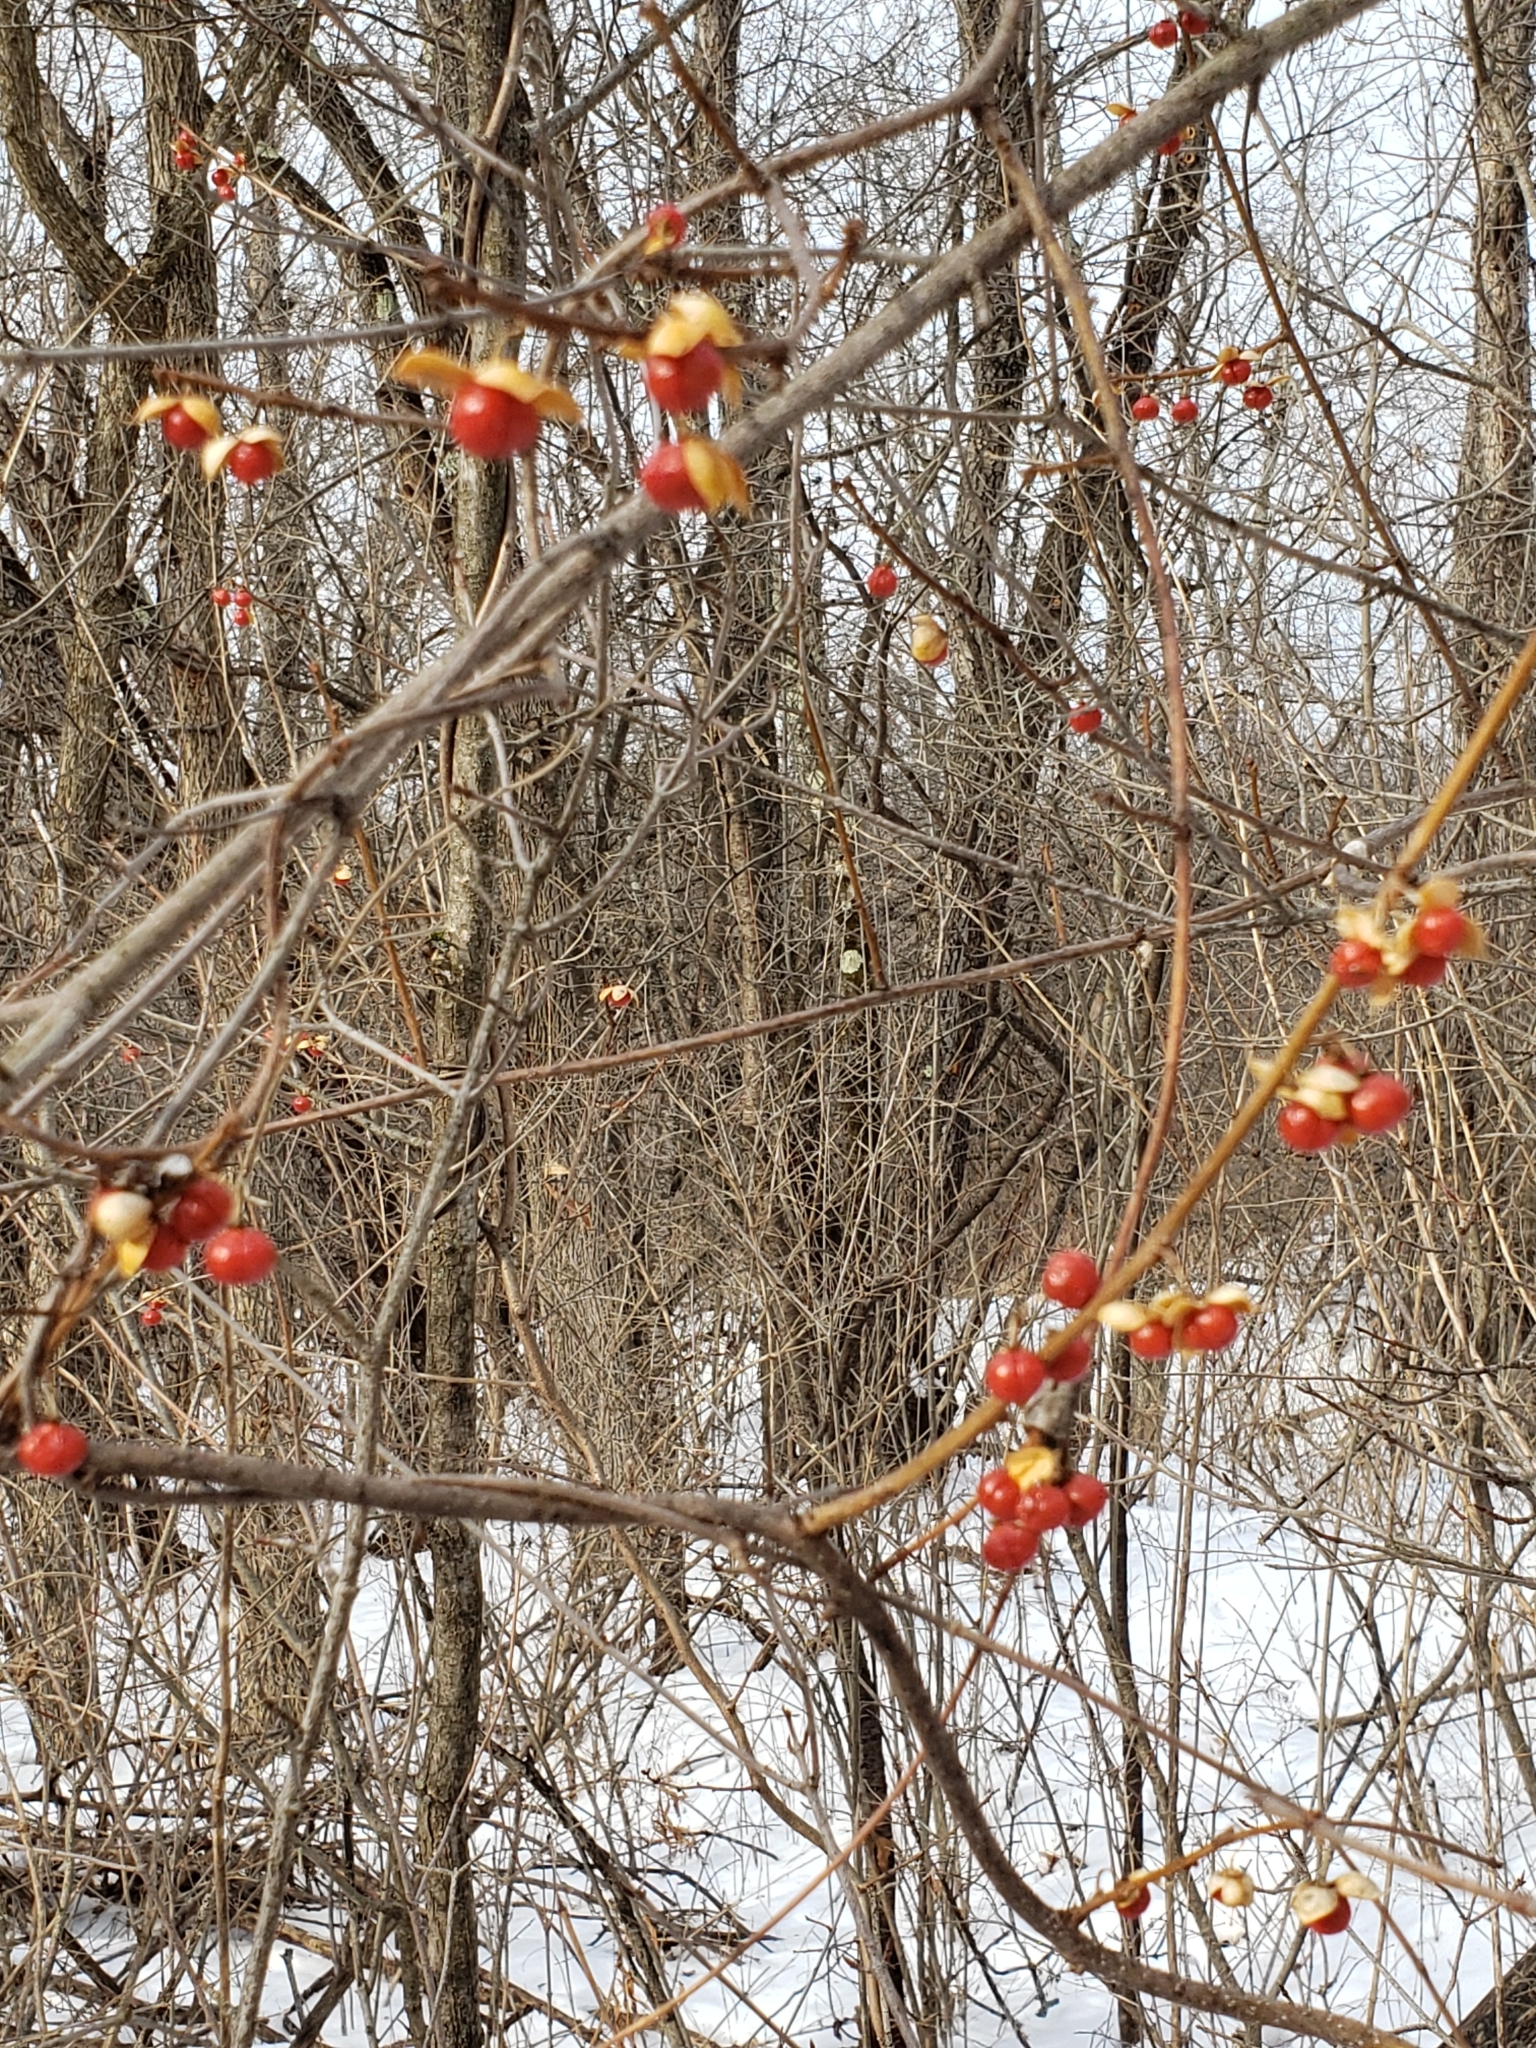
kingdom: Plantae
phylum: Tracheophyta
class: Magnoliopsida
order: Celastrales
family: Celastraceae
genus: Celastrus
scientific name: Celastrus orbiculatus
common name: Oriental bittersweet
